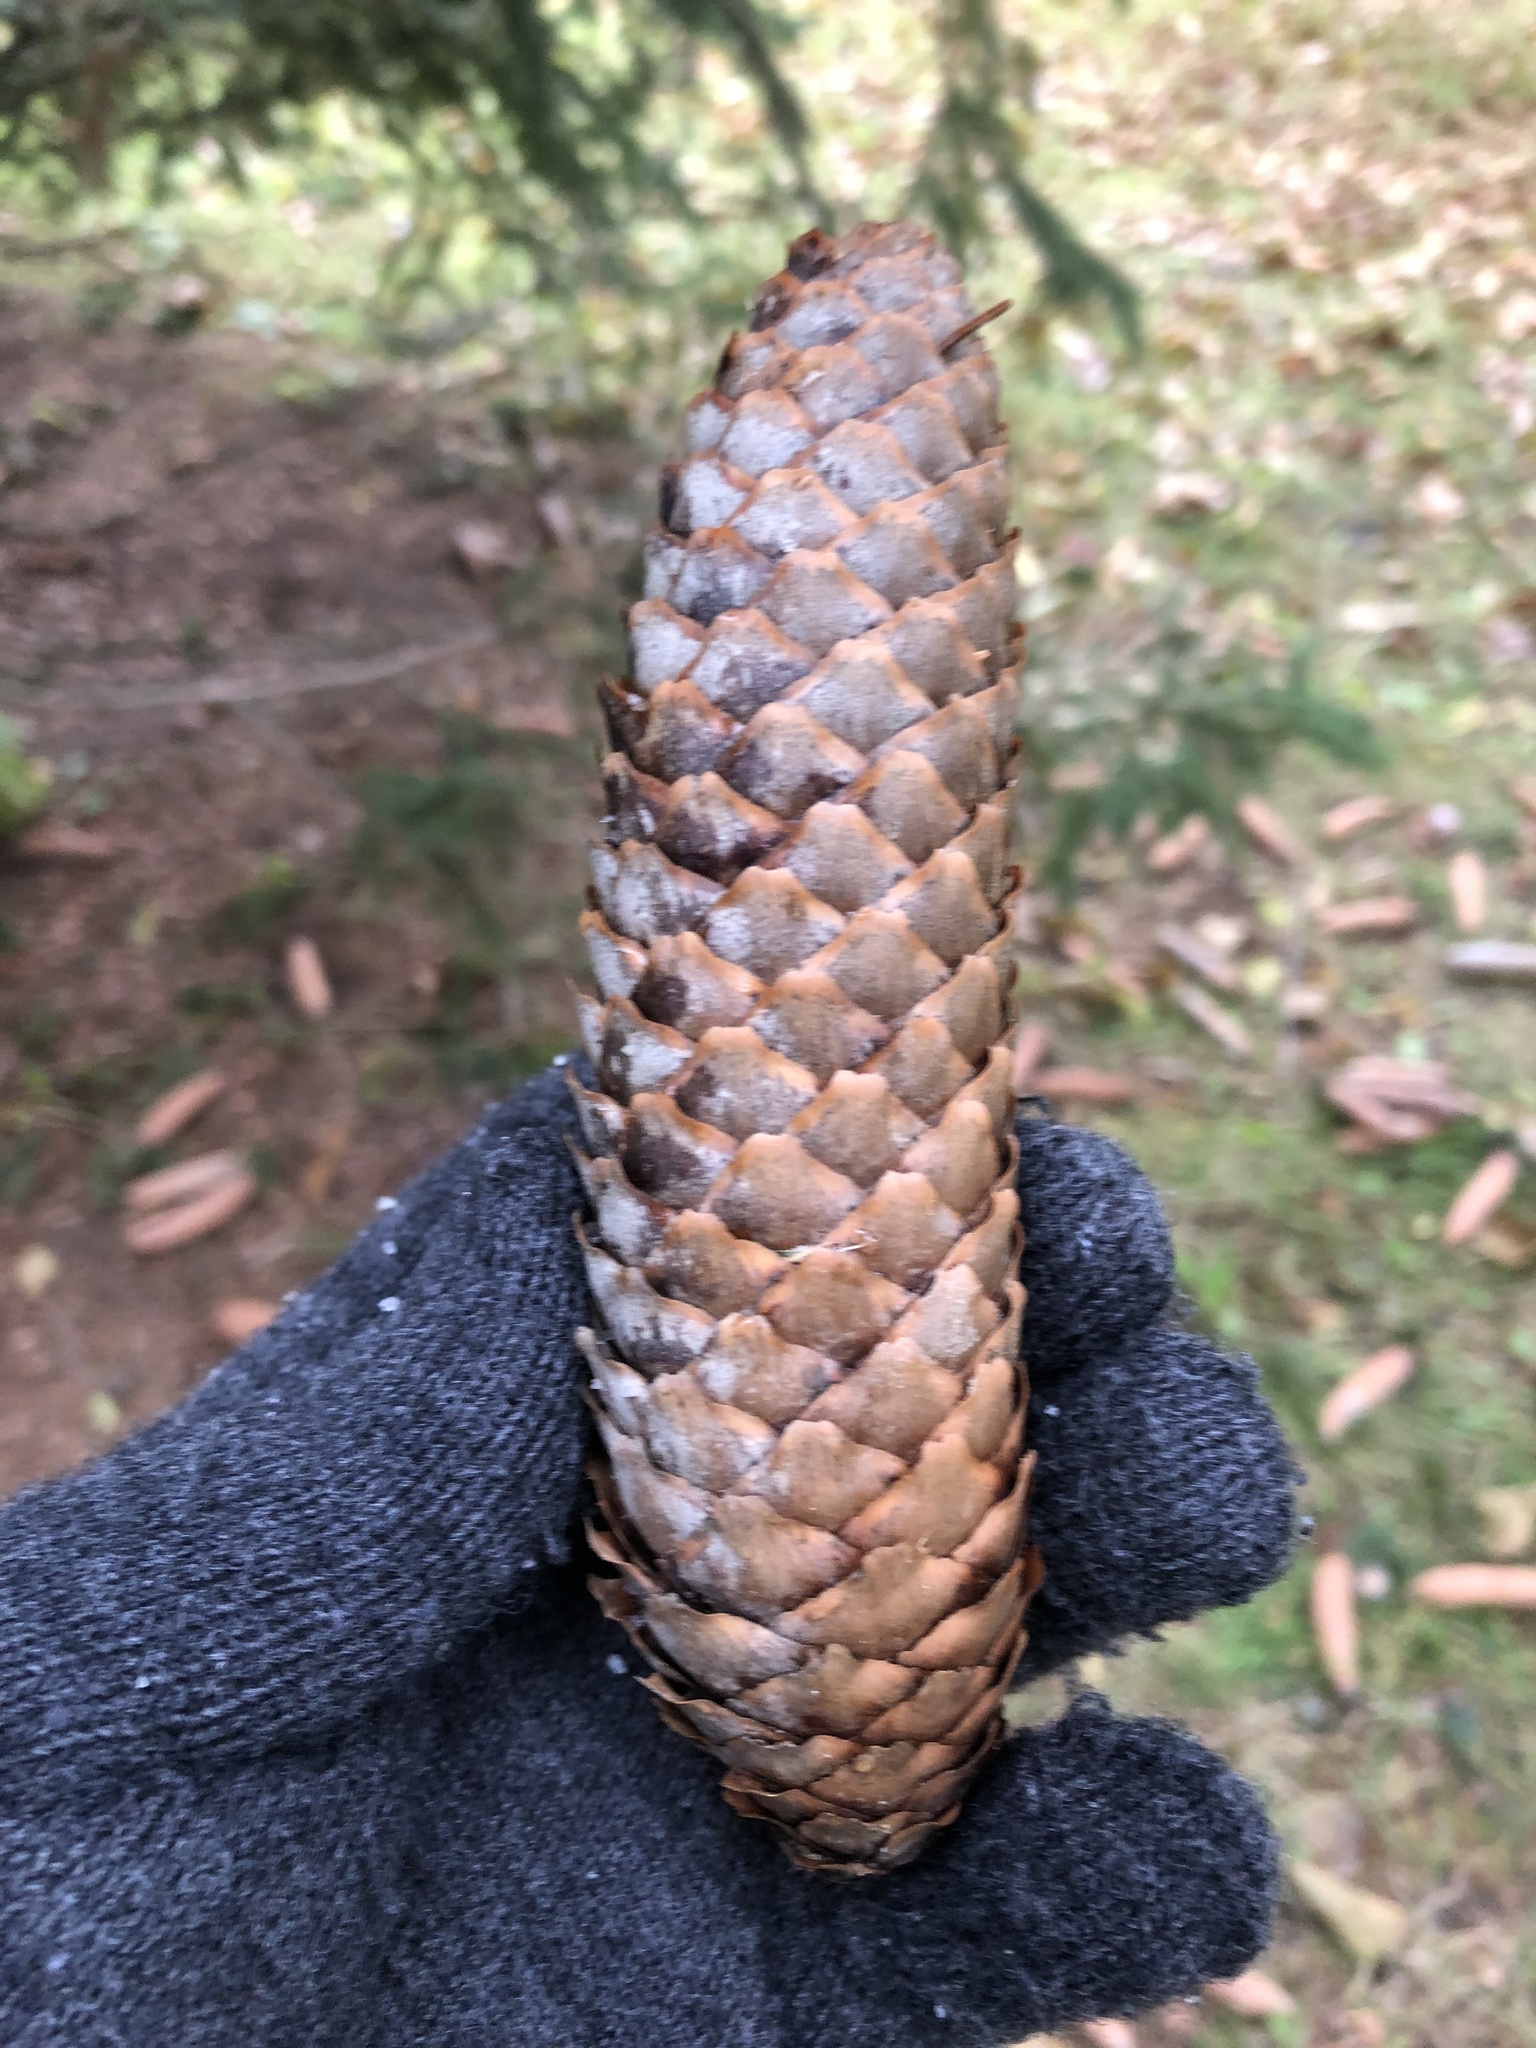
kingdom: Plantae
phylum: Tracheophyta
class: Pinopsida
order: Pinales
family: Pinaceae
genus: Picea
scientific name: Picea abies
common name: Norway spruce
